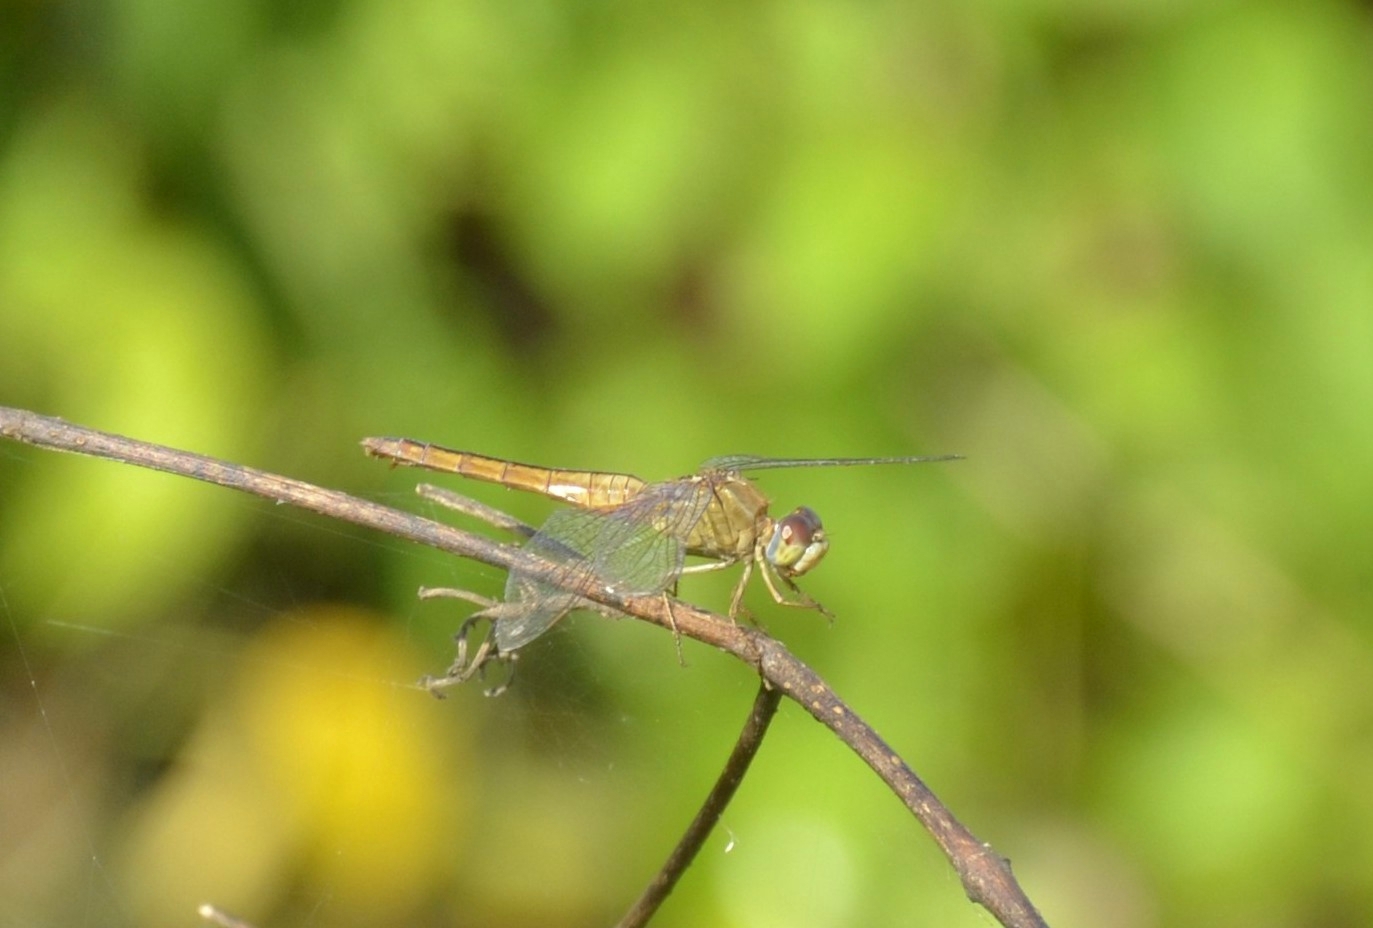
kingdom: Animalia
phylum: Arthropoda
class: Insecta
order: Odonata
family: Libellulidae
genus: Crocothemis
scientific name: Crocothemis servilia
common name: Scarlet skimmer
